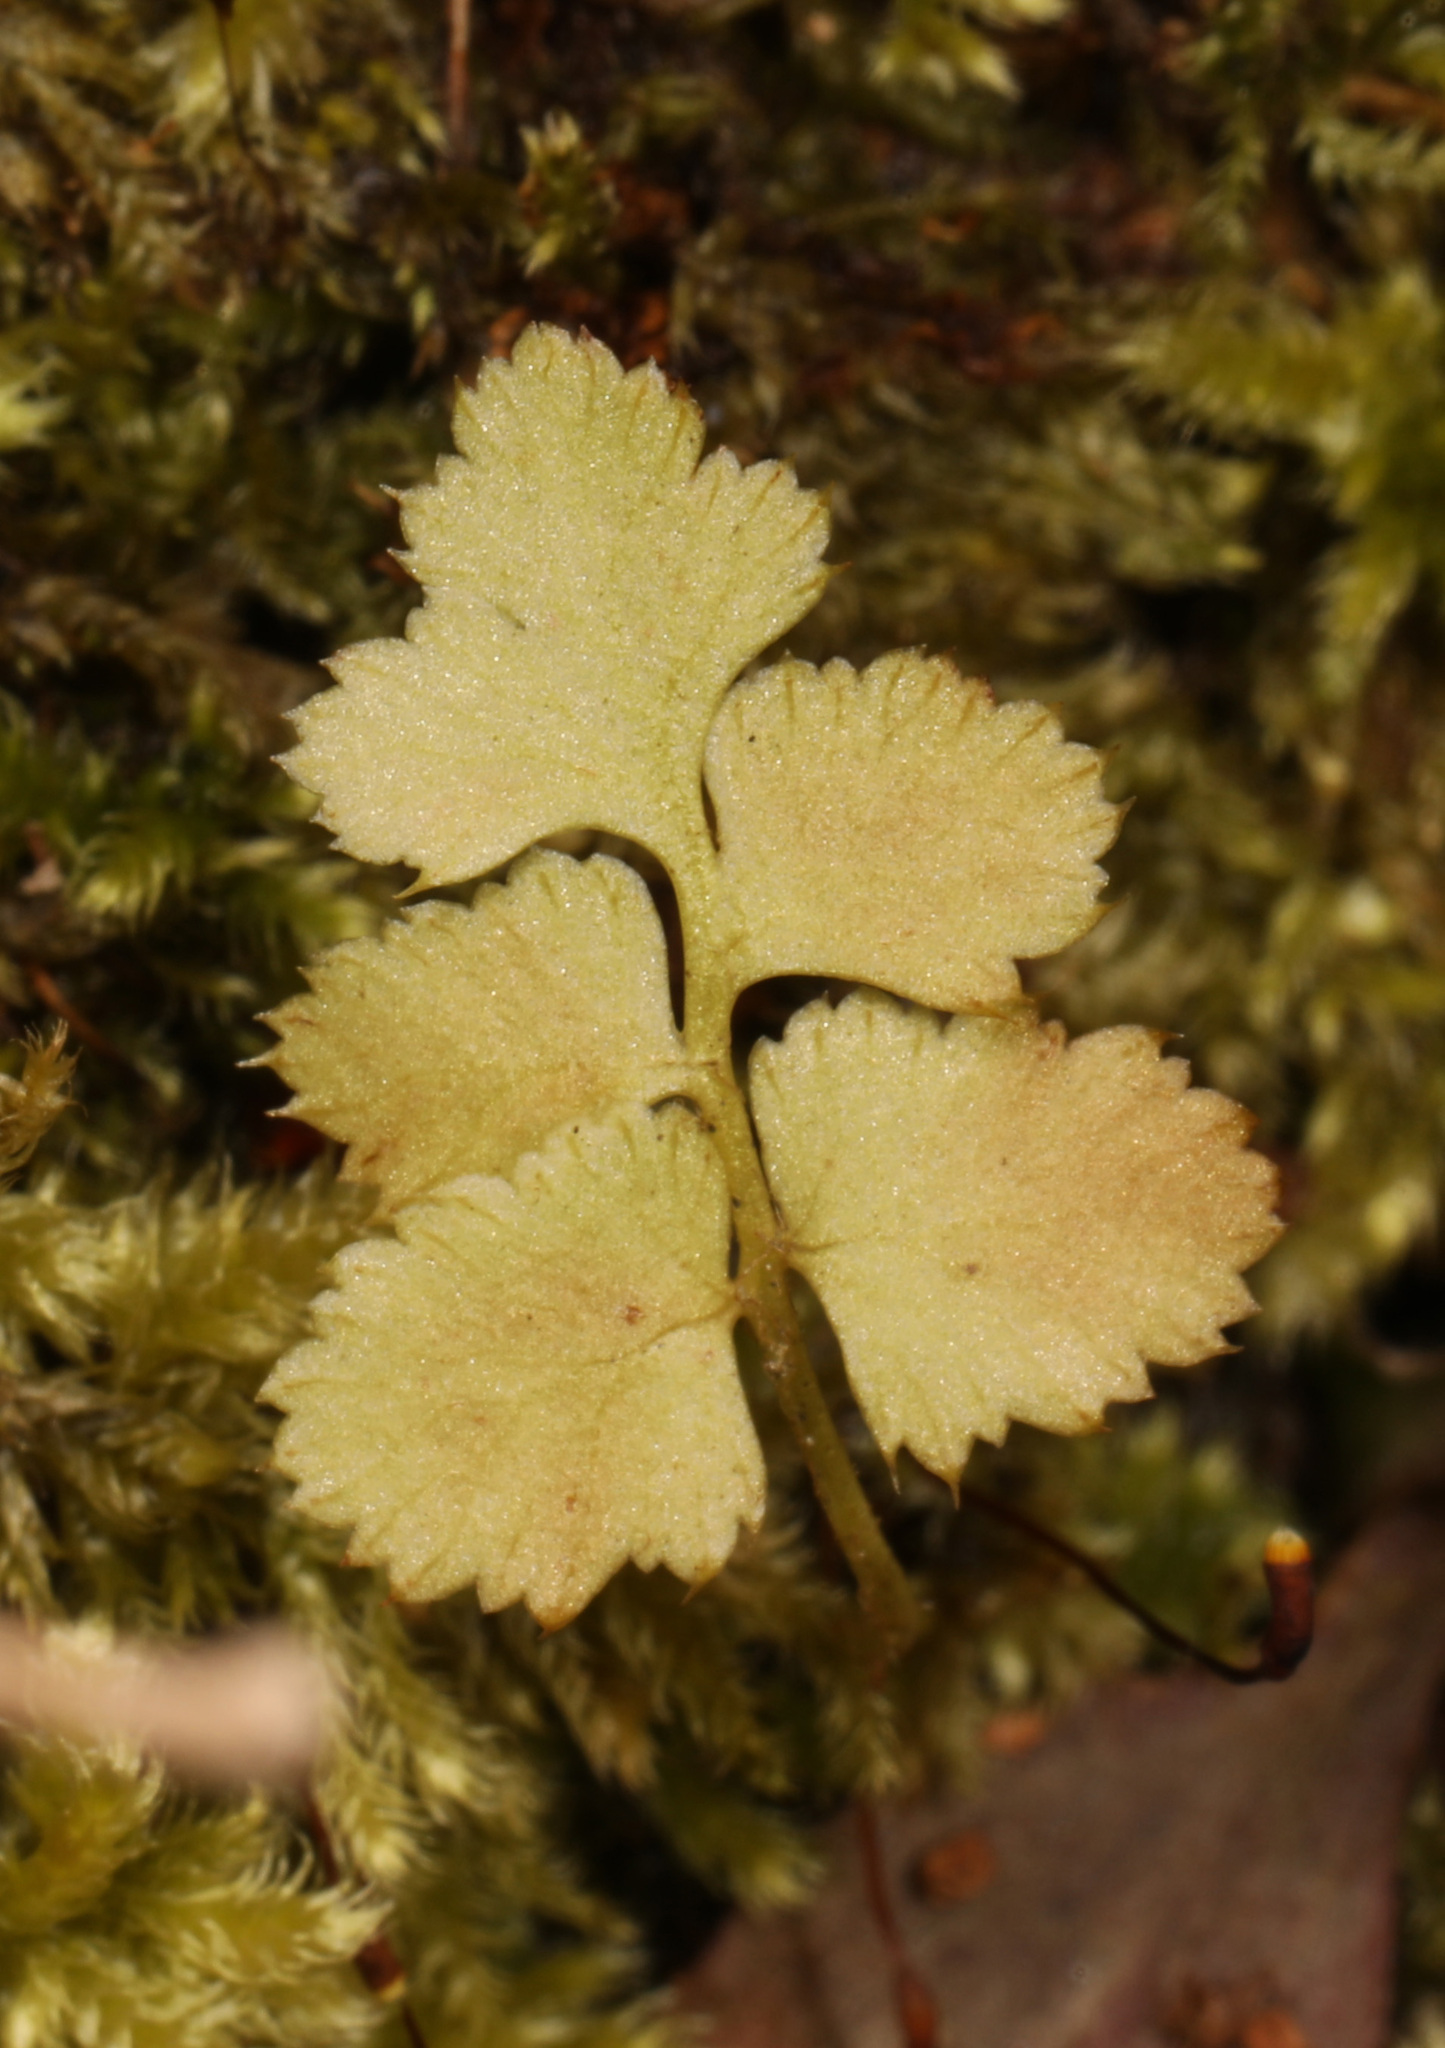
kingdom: Plantae
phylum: Tracheophyta
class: Polypodiopsida
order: Polypodiales
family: Woodsiaceae
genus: Physematium
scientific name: Physematium obtusum
